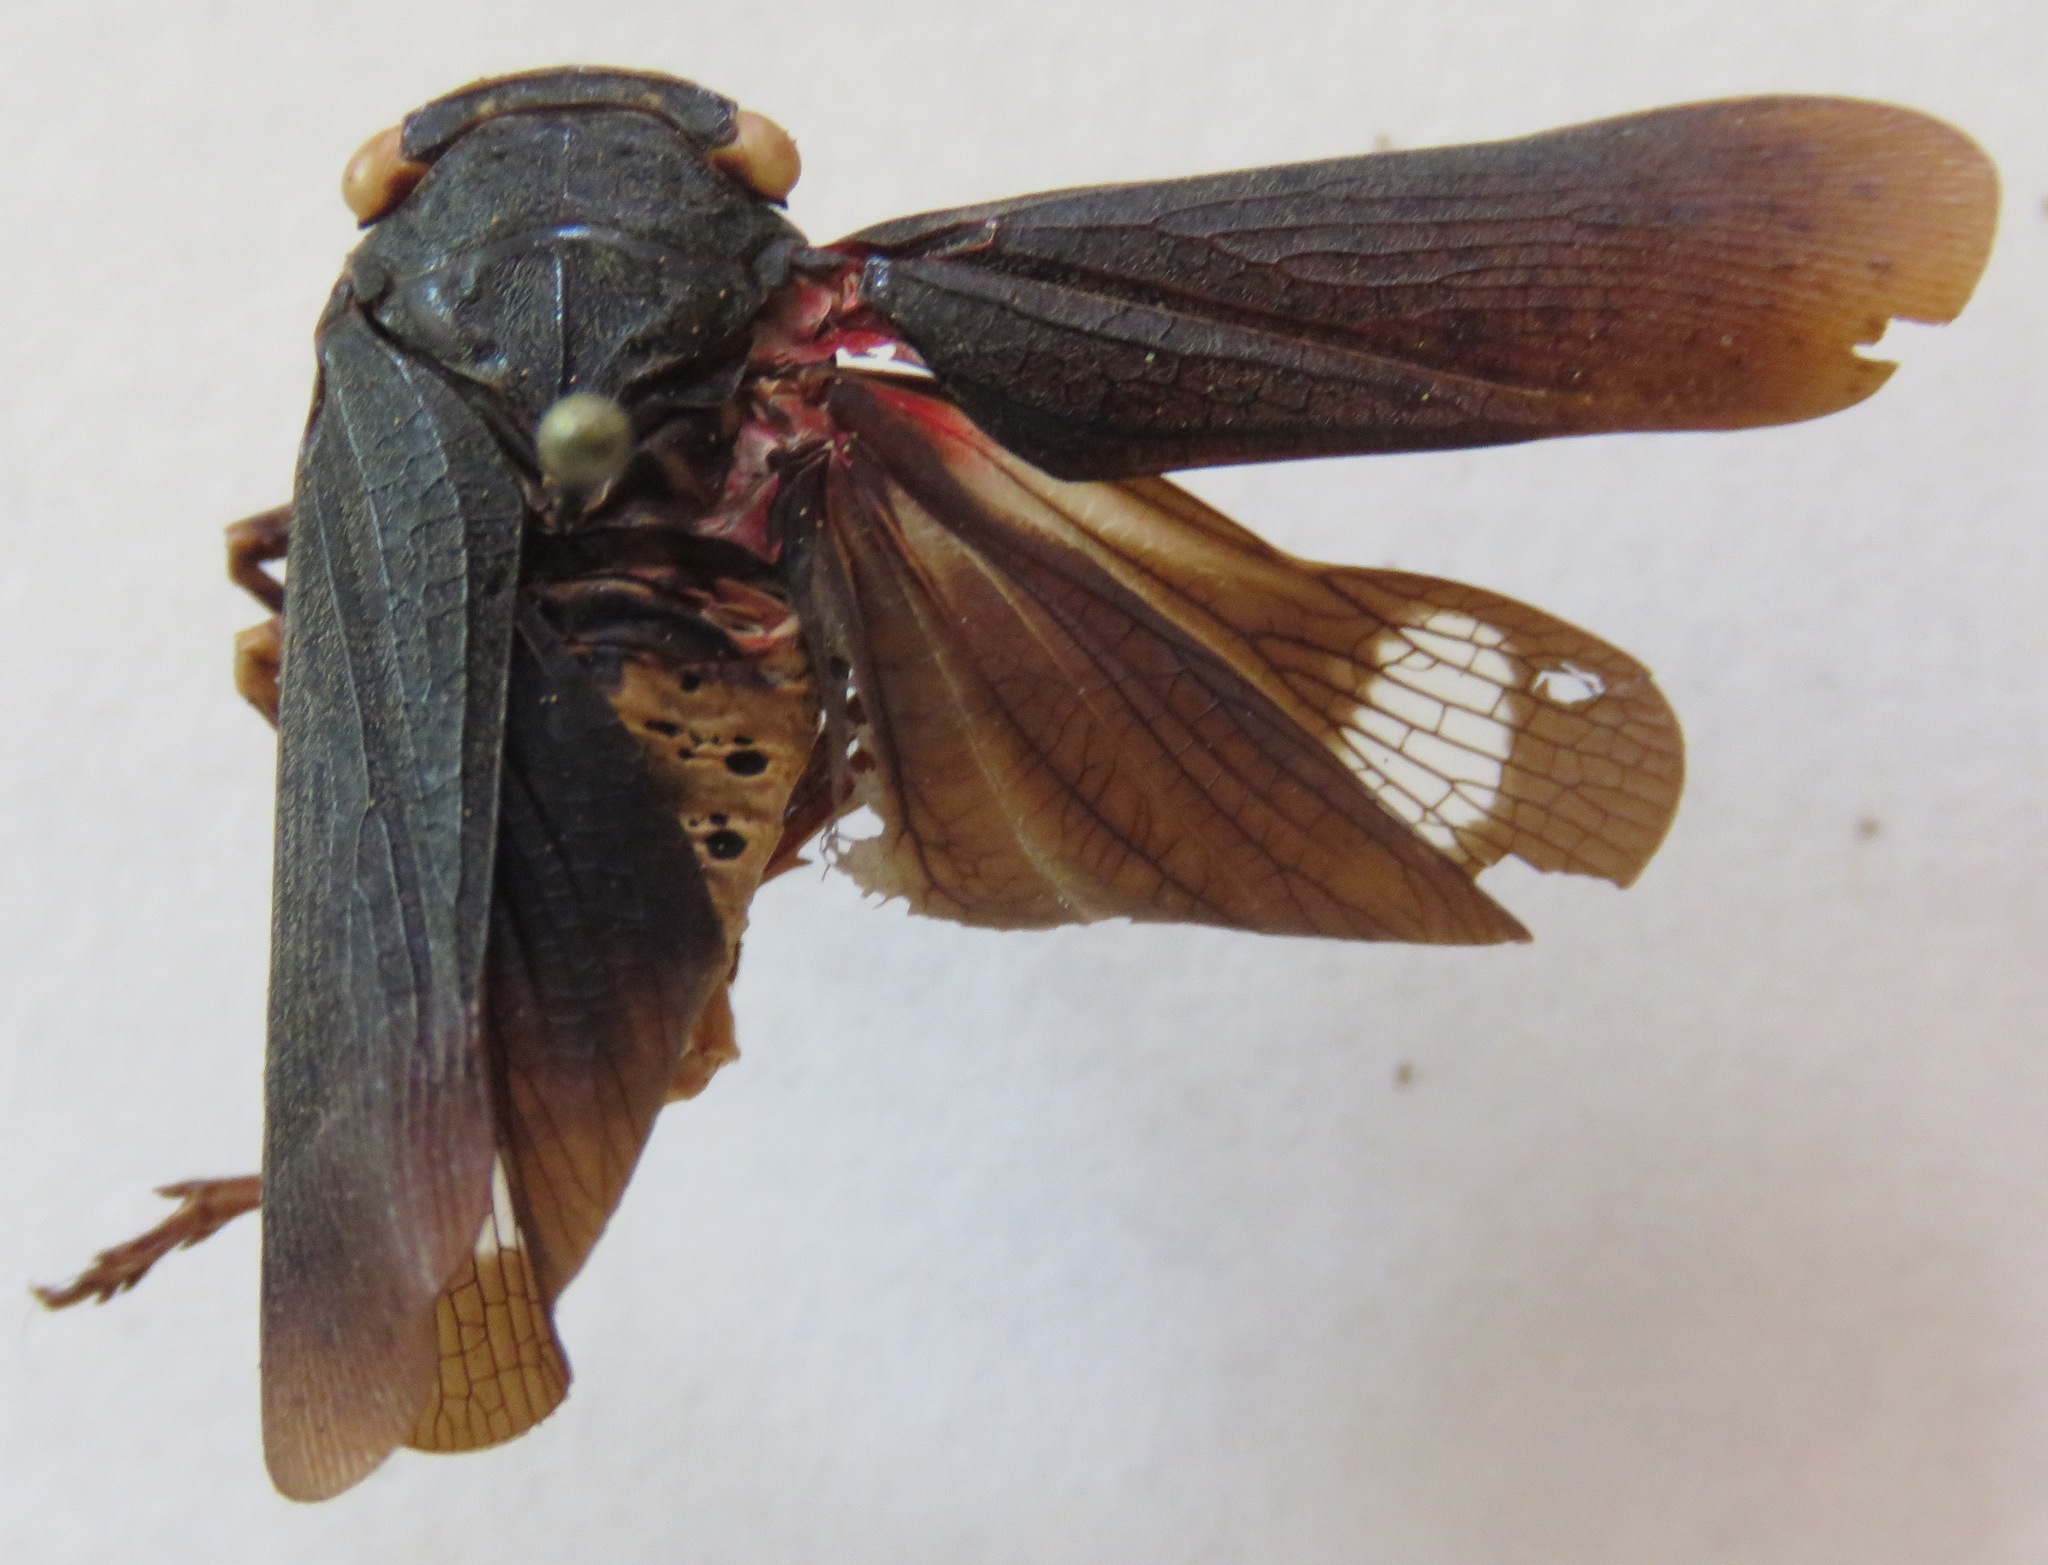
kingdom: Animalia
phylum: Arthropoda
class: Insecta
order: Hemiptera
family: Fulgoridae
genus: Acraephia
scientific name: Acraephia perspicillata
